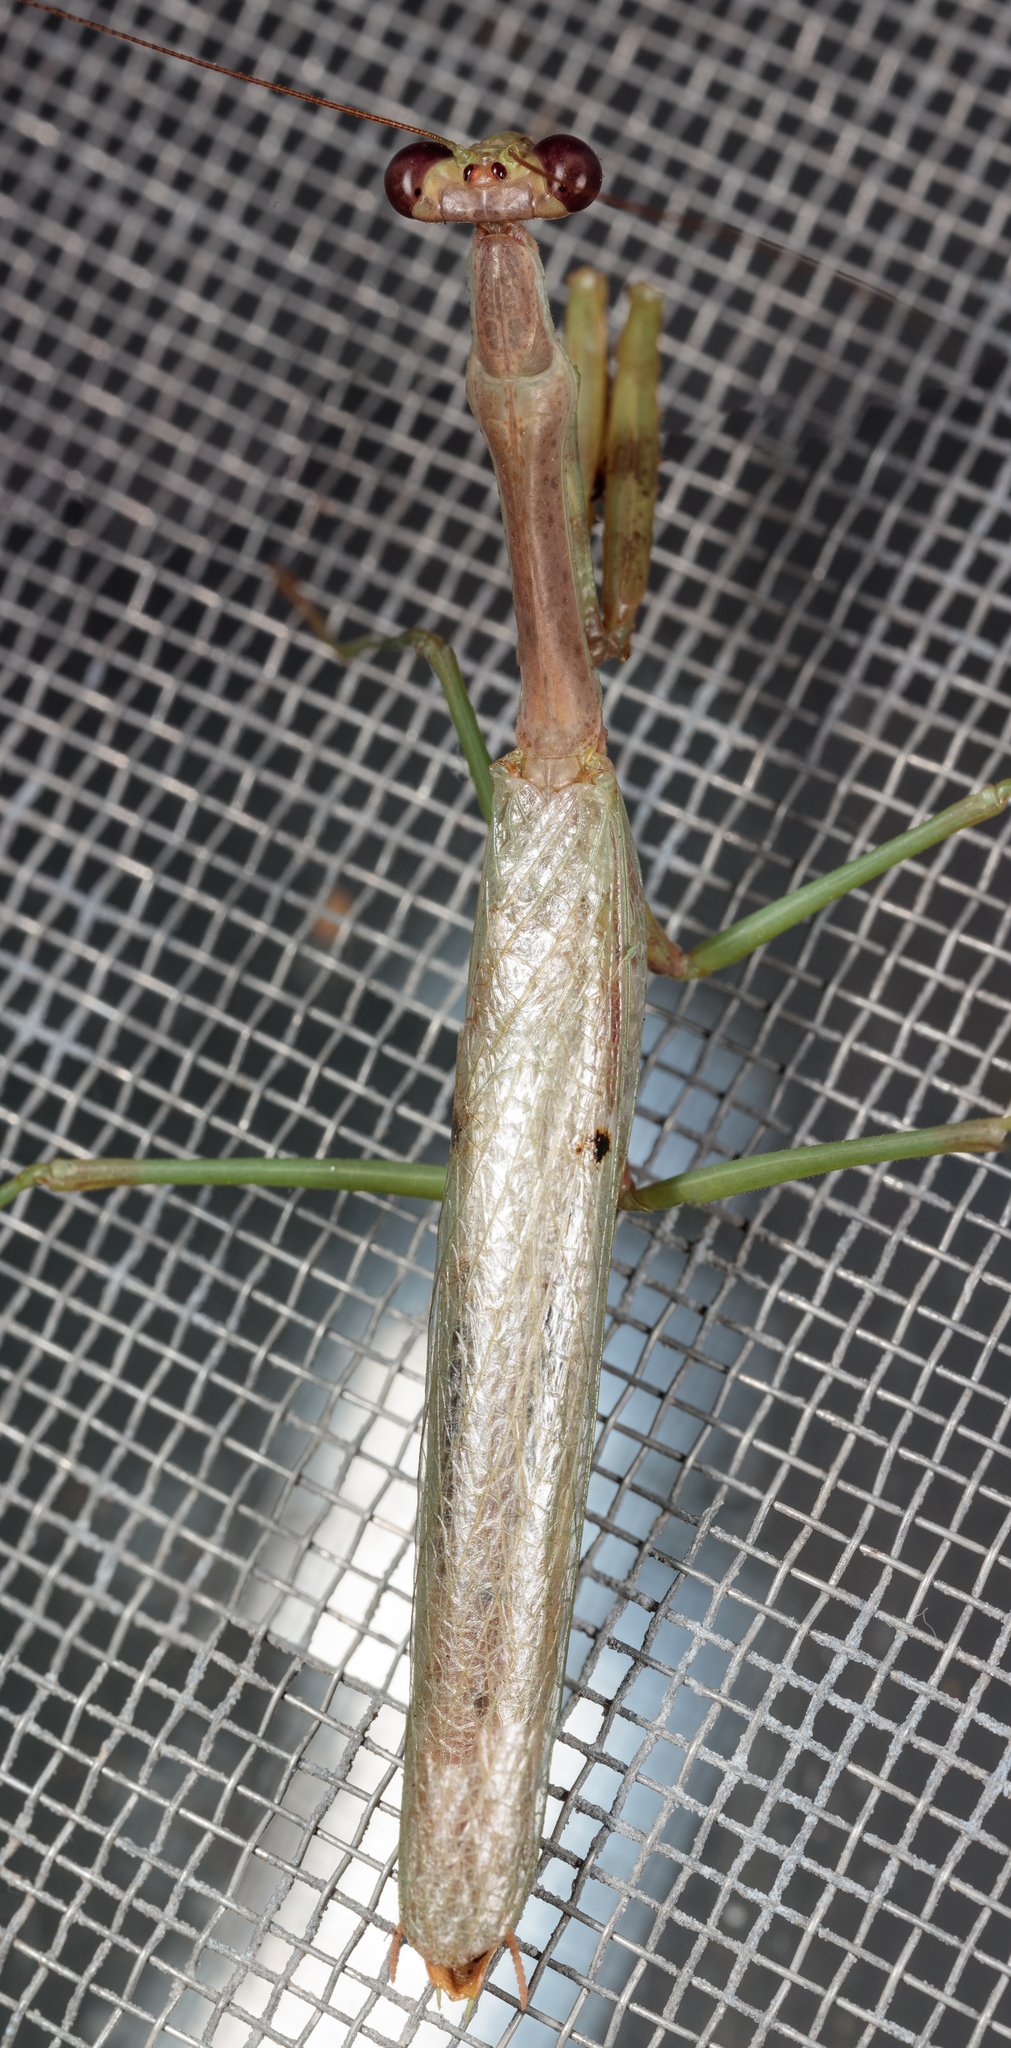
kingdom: Animalia
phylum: Arthropoda
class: Insecta
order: Mantodea
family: Mantidae
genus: Stagmomantis
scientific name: Stagmomantis carolina
